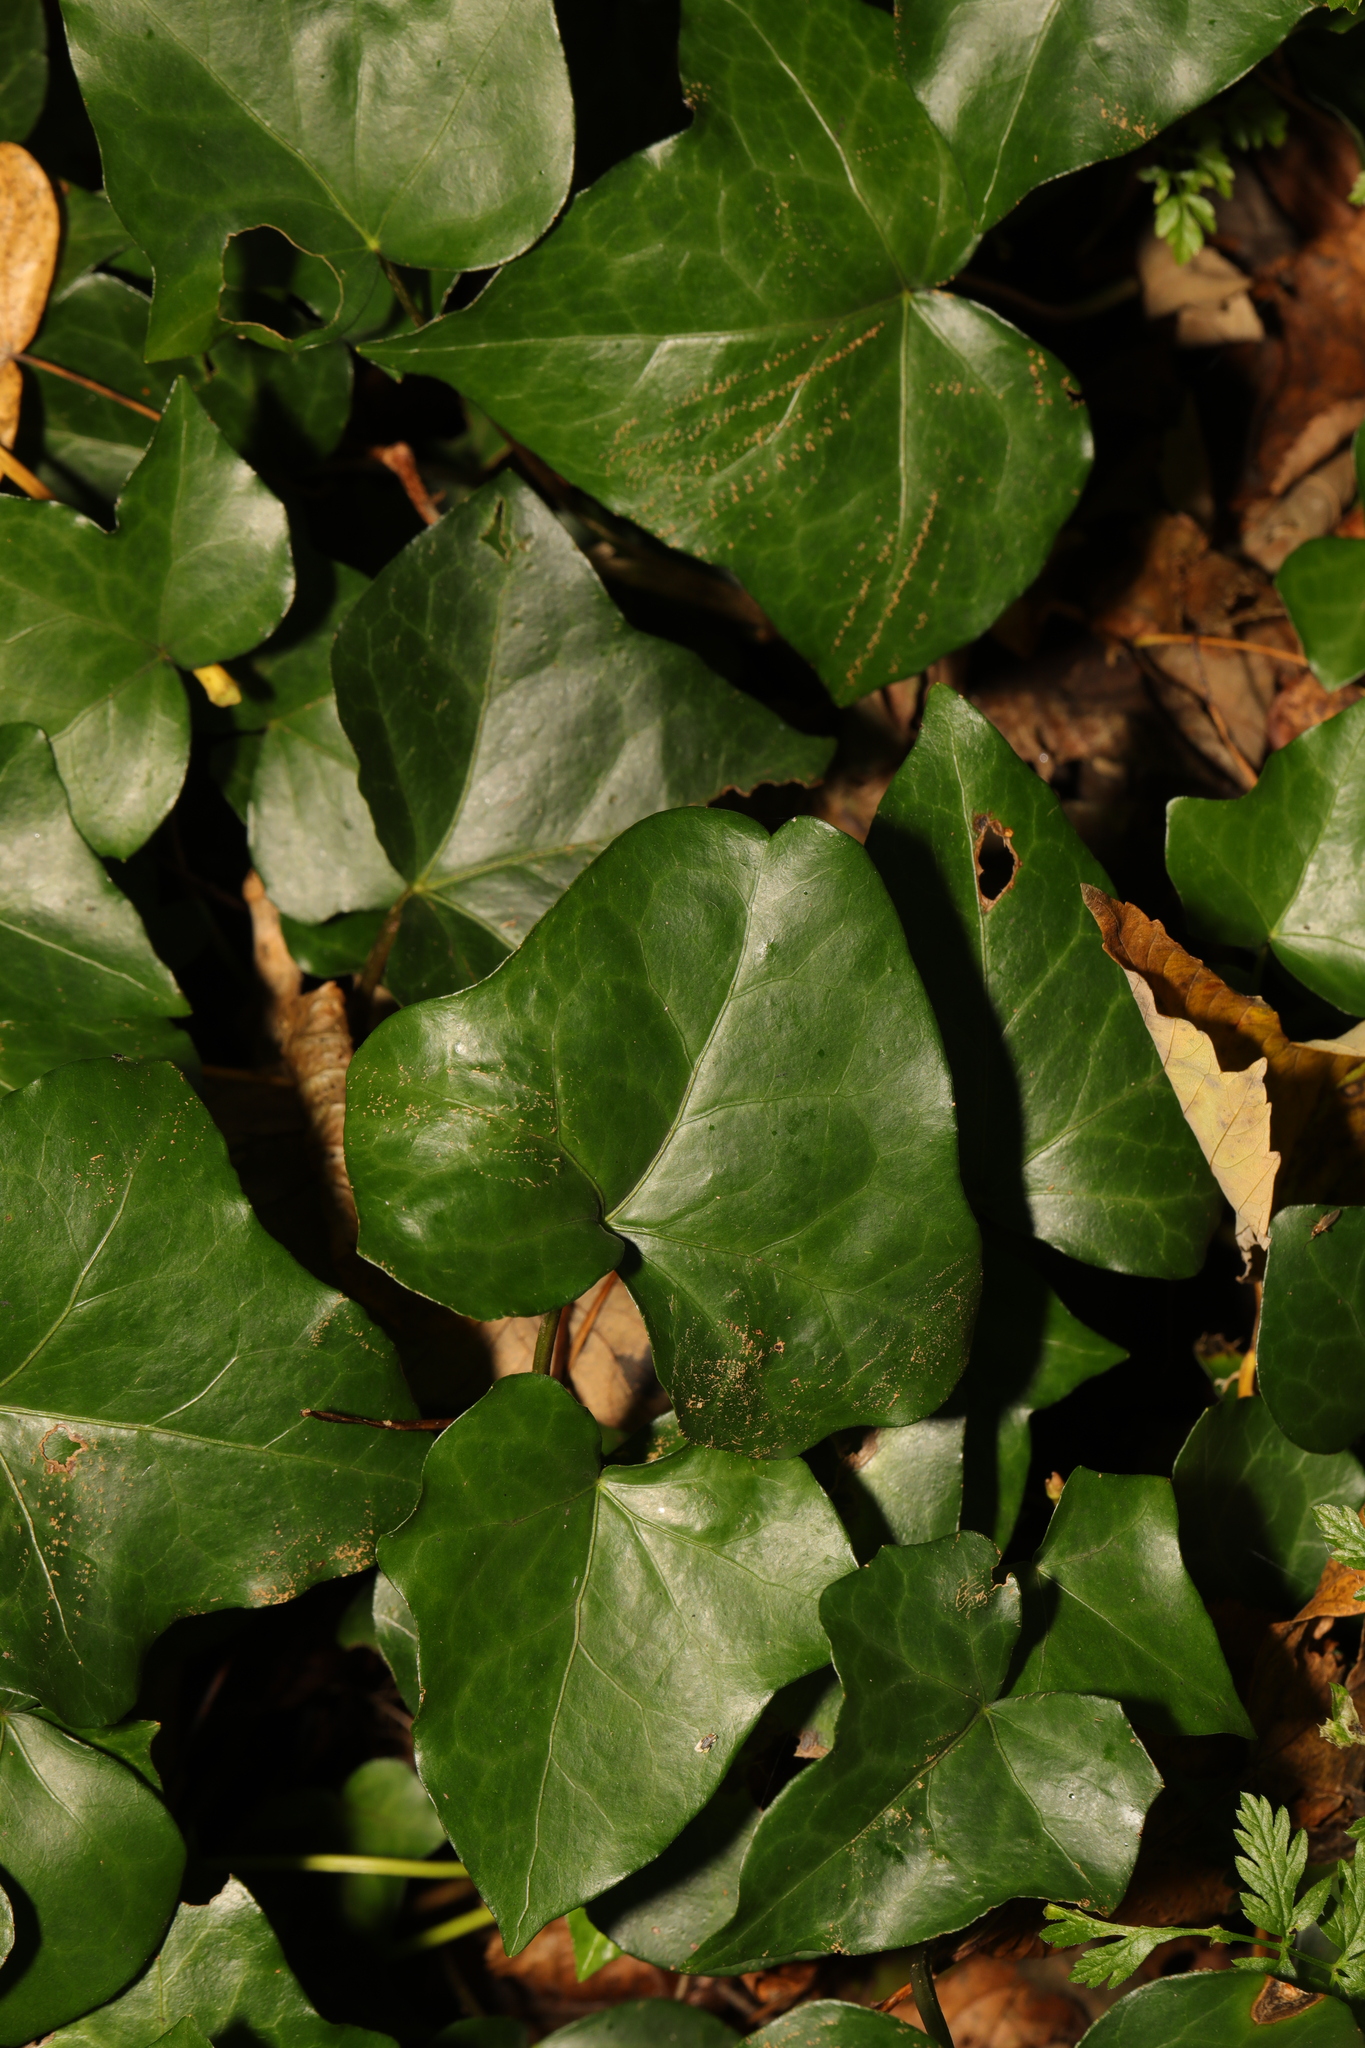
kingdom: Plantae
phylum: Tracheophyta
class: Magnoliopsida
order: Apiales
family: Araliaceae
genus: Hedera
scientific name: Hedera helix
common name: Ivy
